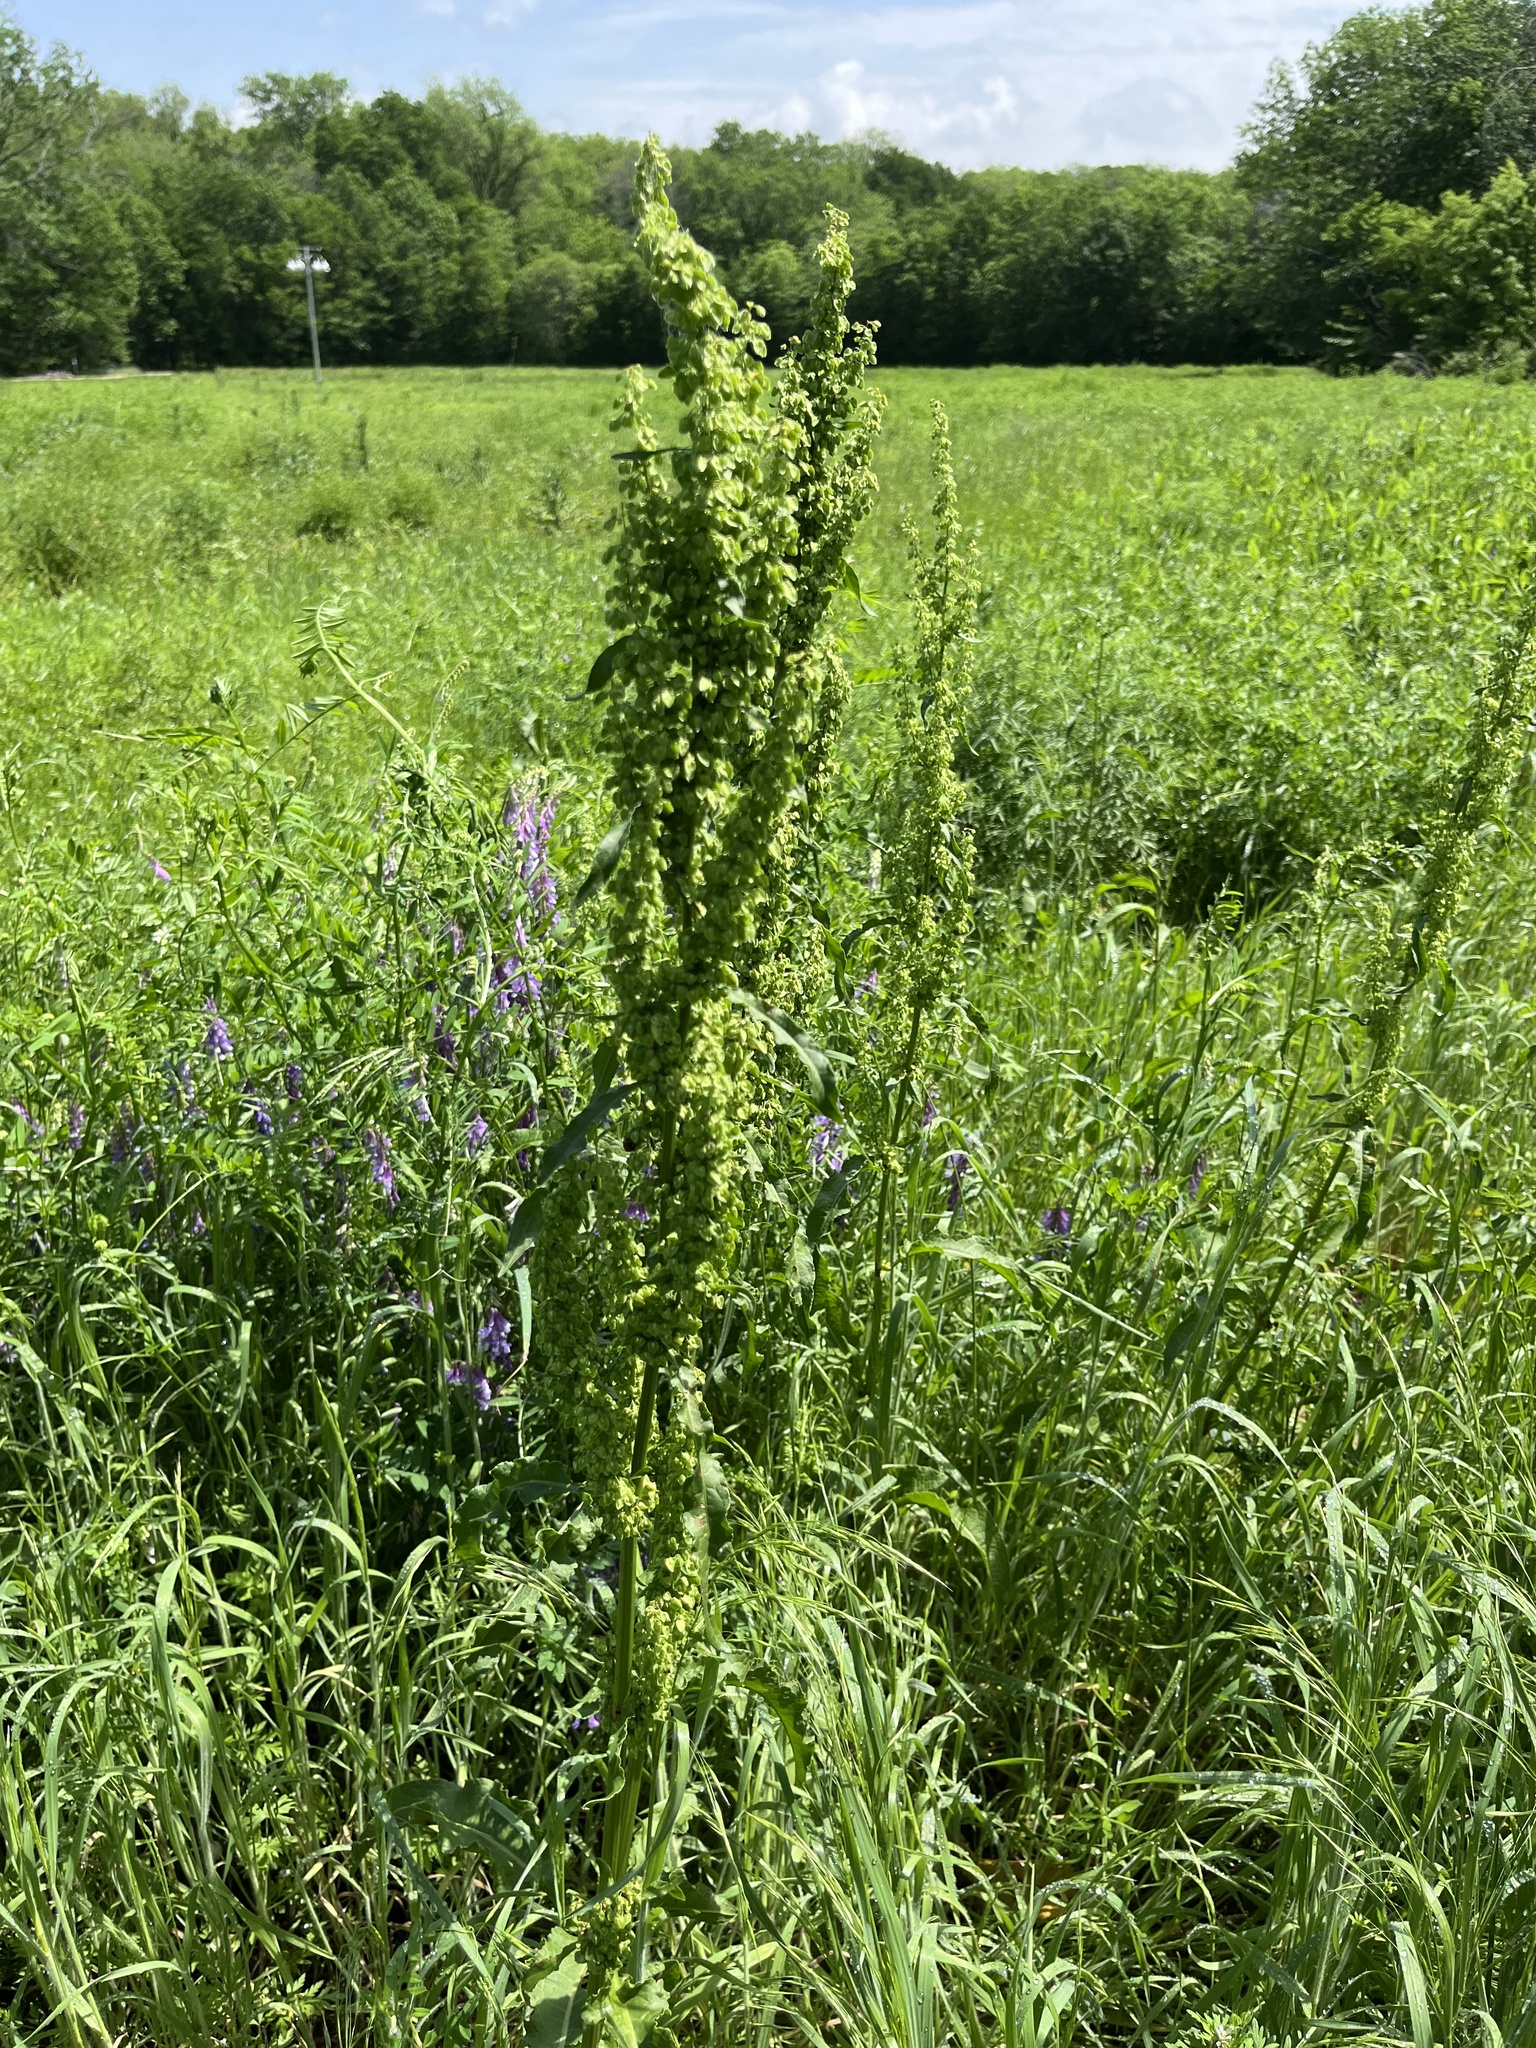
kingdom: Plantae
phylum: Tracheophyta
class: Magnoliopsida
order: Caryophyllales
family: Polygonaceae
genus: Rumex
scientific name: Rumex altissimus
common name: Smooth dock
